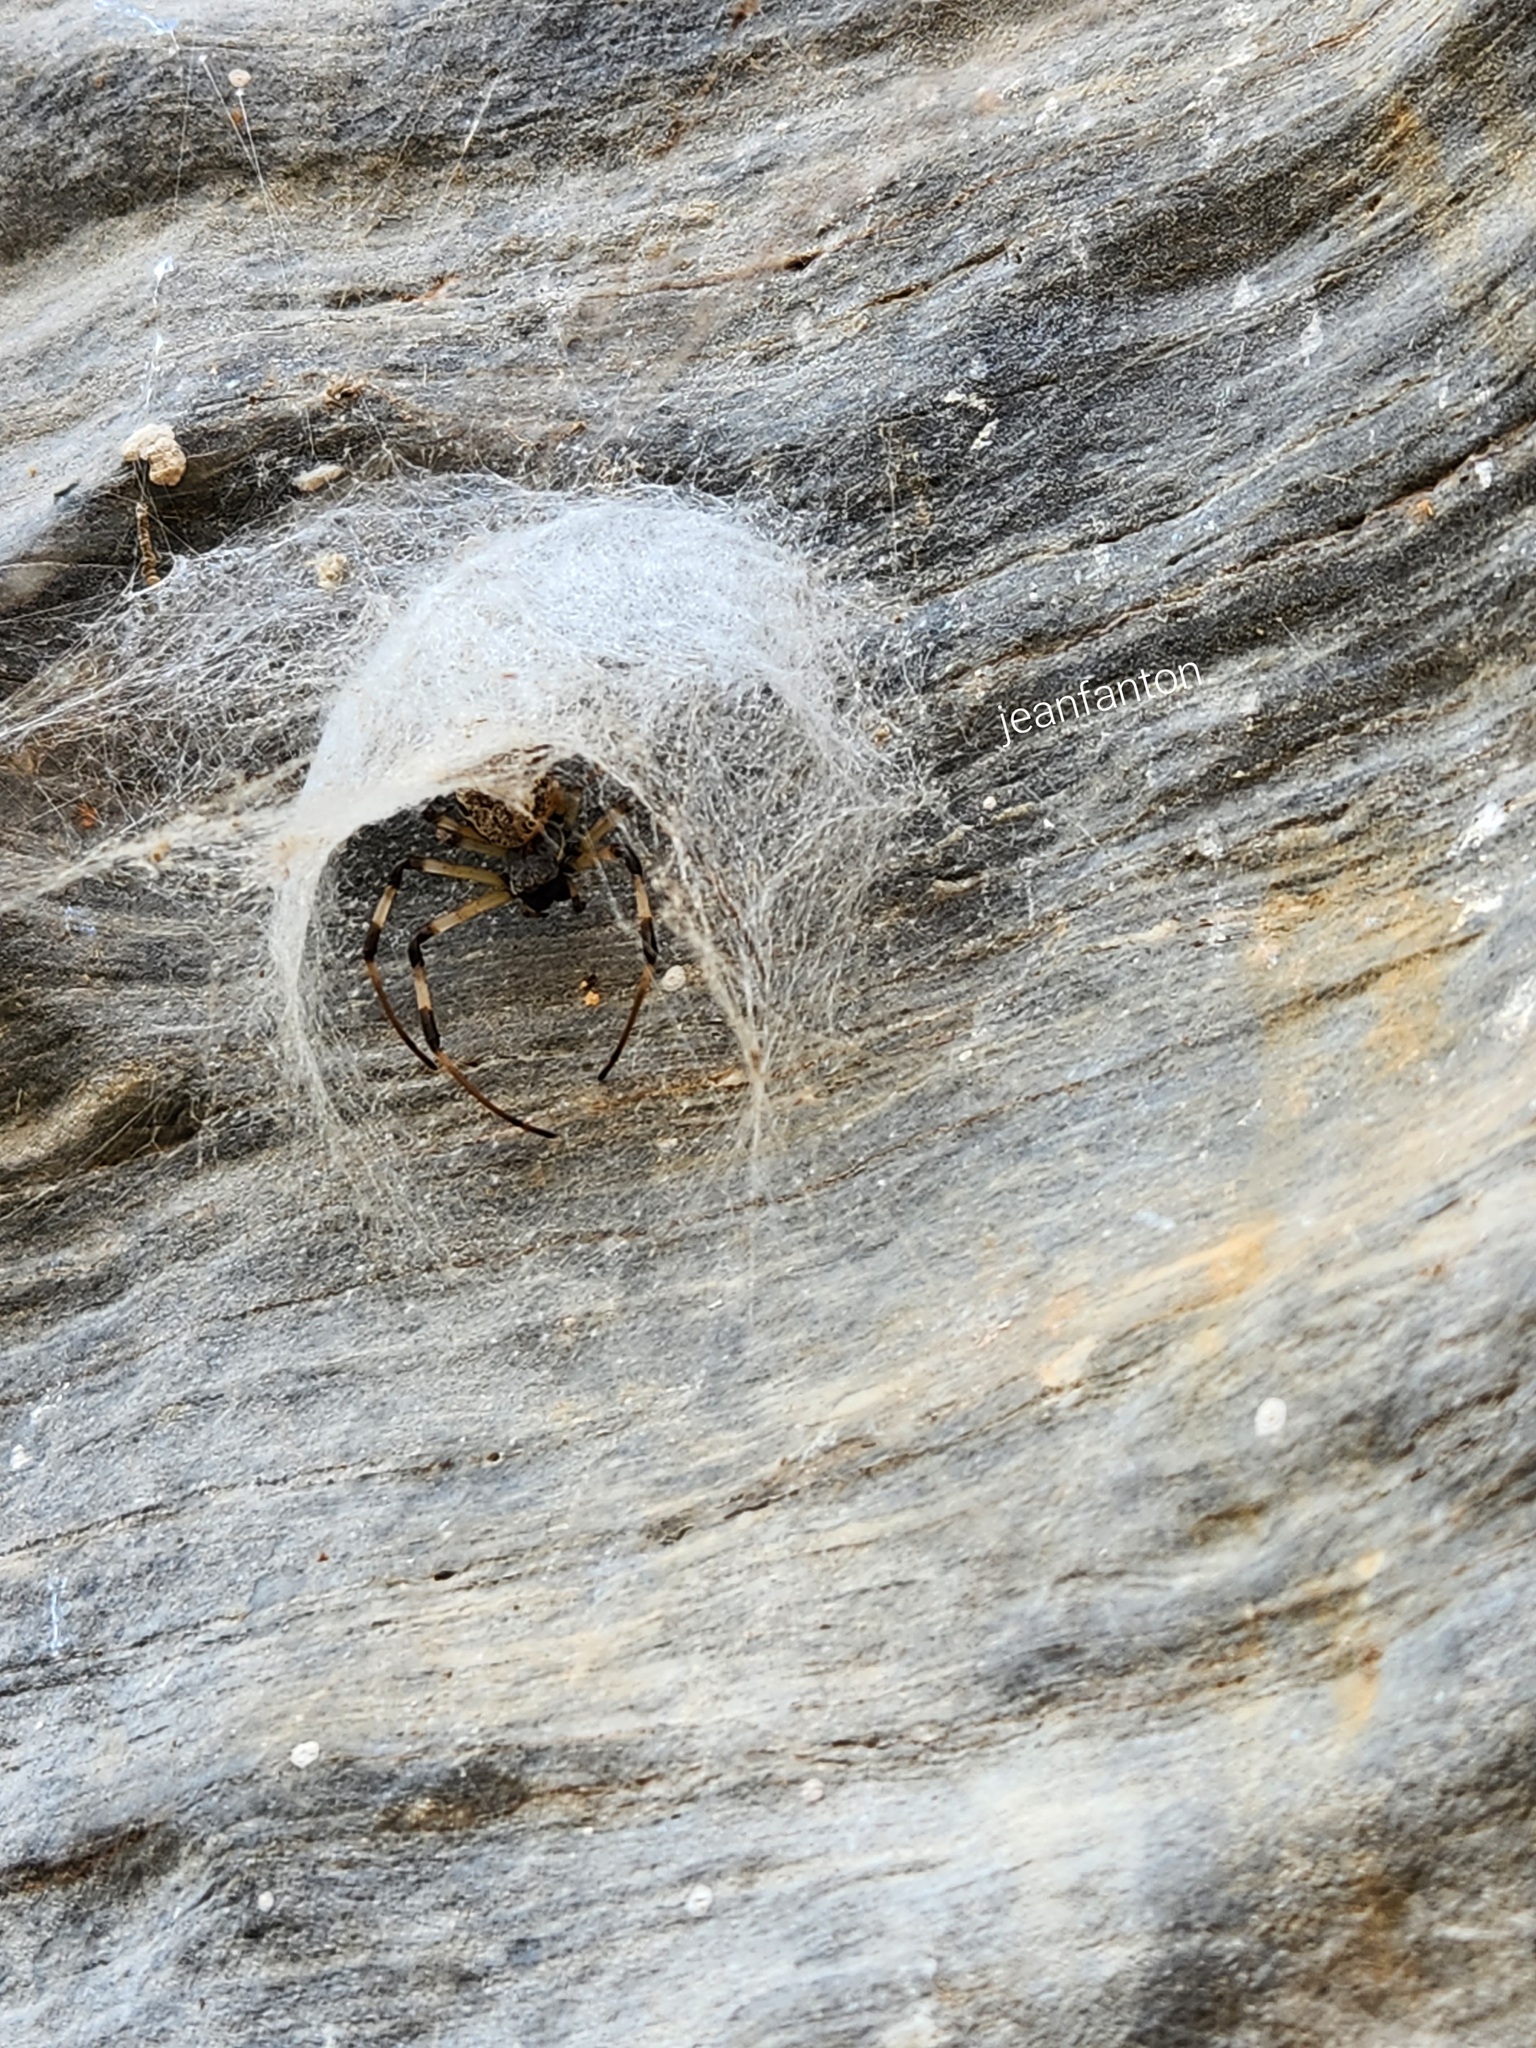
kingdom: Animalia
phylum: Arthropoda
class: Arachnida
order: Araneae
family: Araneidae
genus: Nephilingis
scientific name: Nephilingis cruentata
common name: African hermit spider
